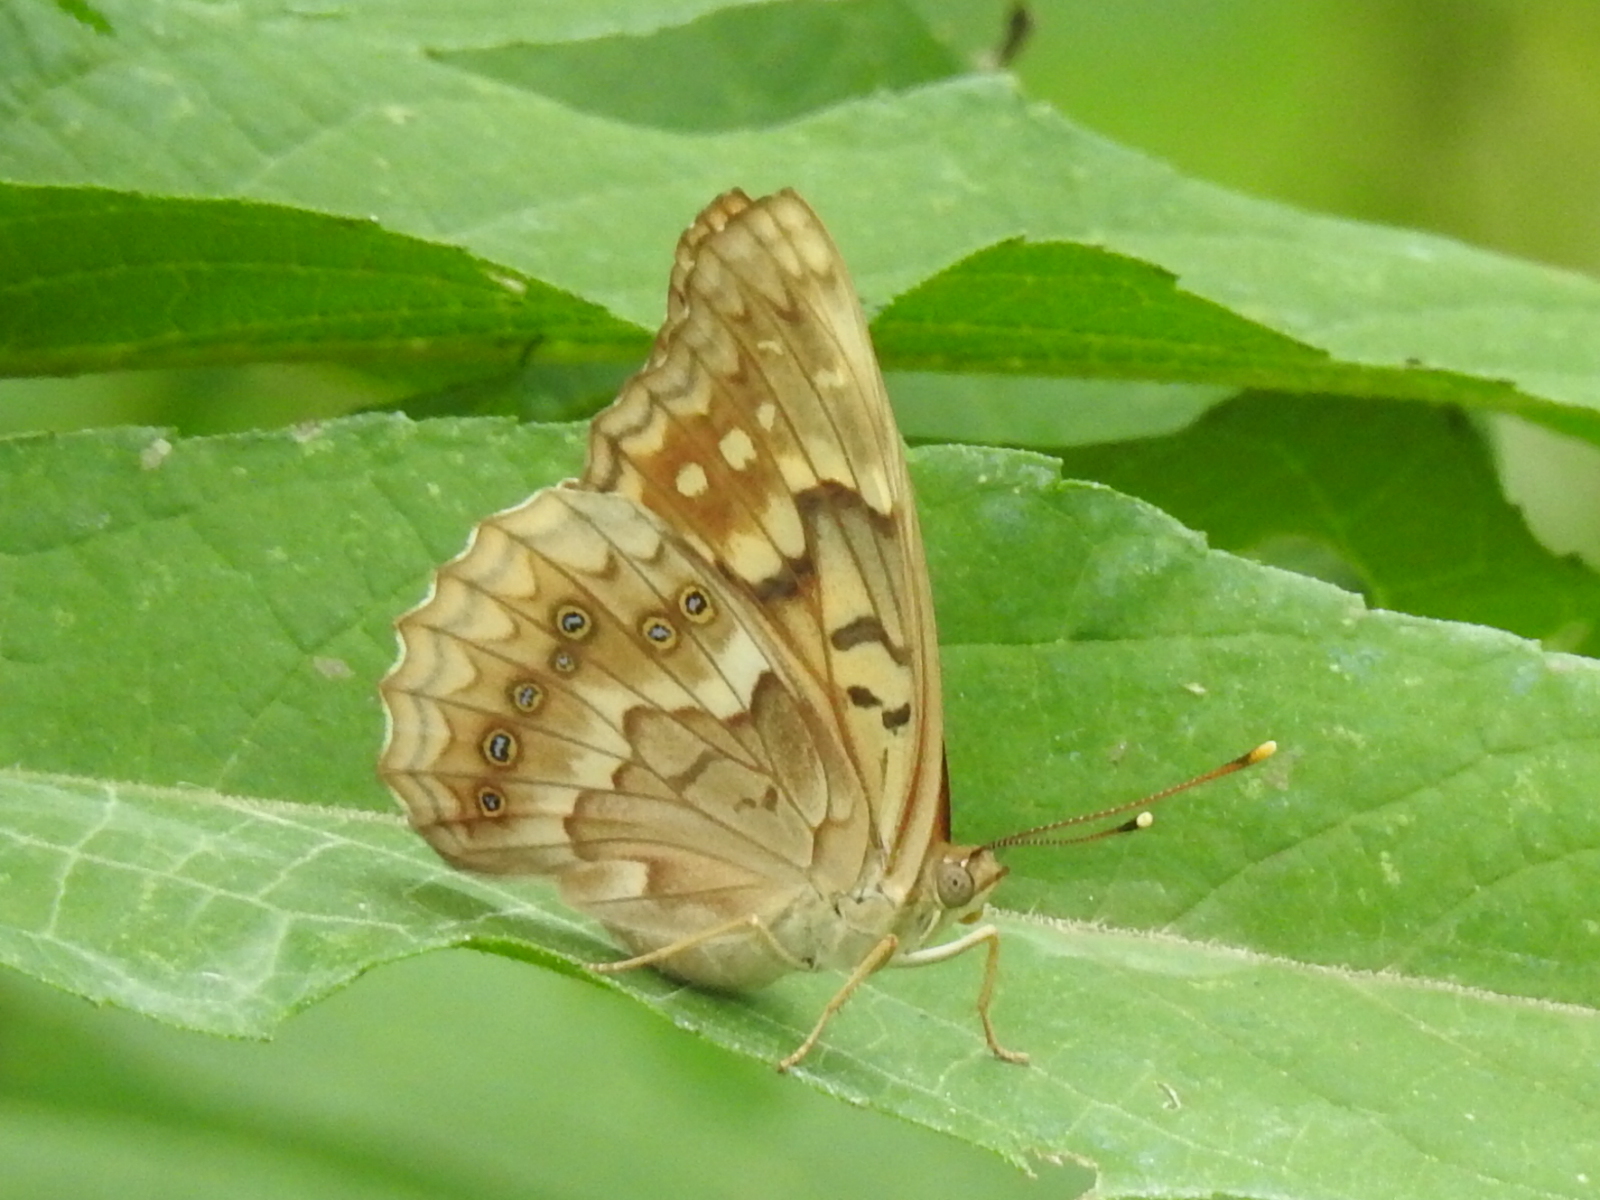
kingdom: Animalia
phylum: Arthropoda
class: Insecta
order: Lepidoptera
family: Nymphalidae
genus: Asterocampa
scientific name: Asterocampa clyton
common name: Tawny emperor
